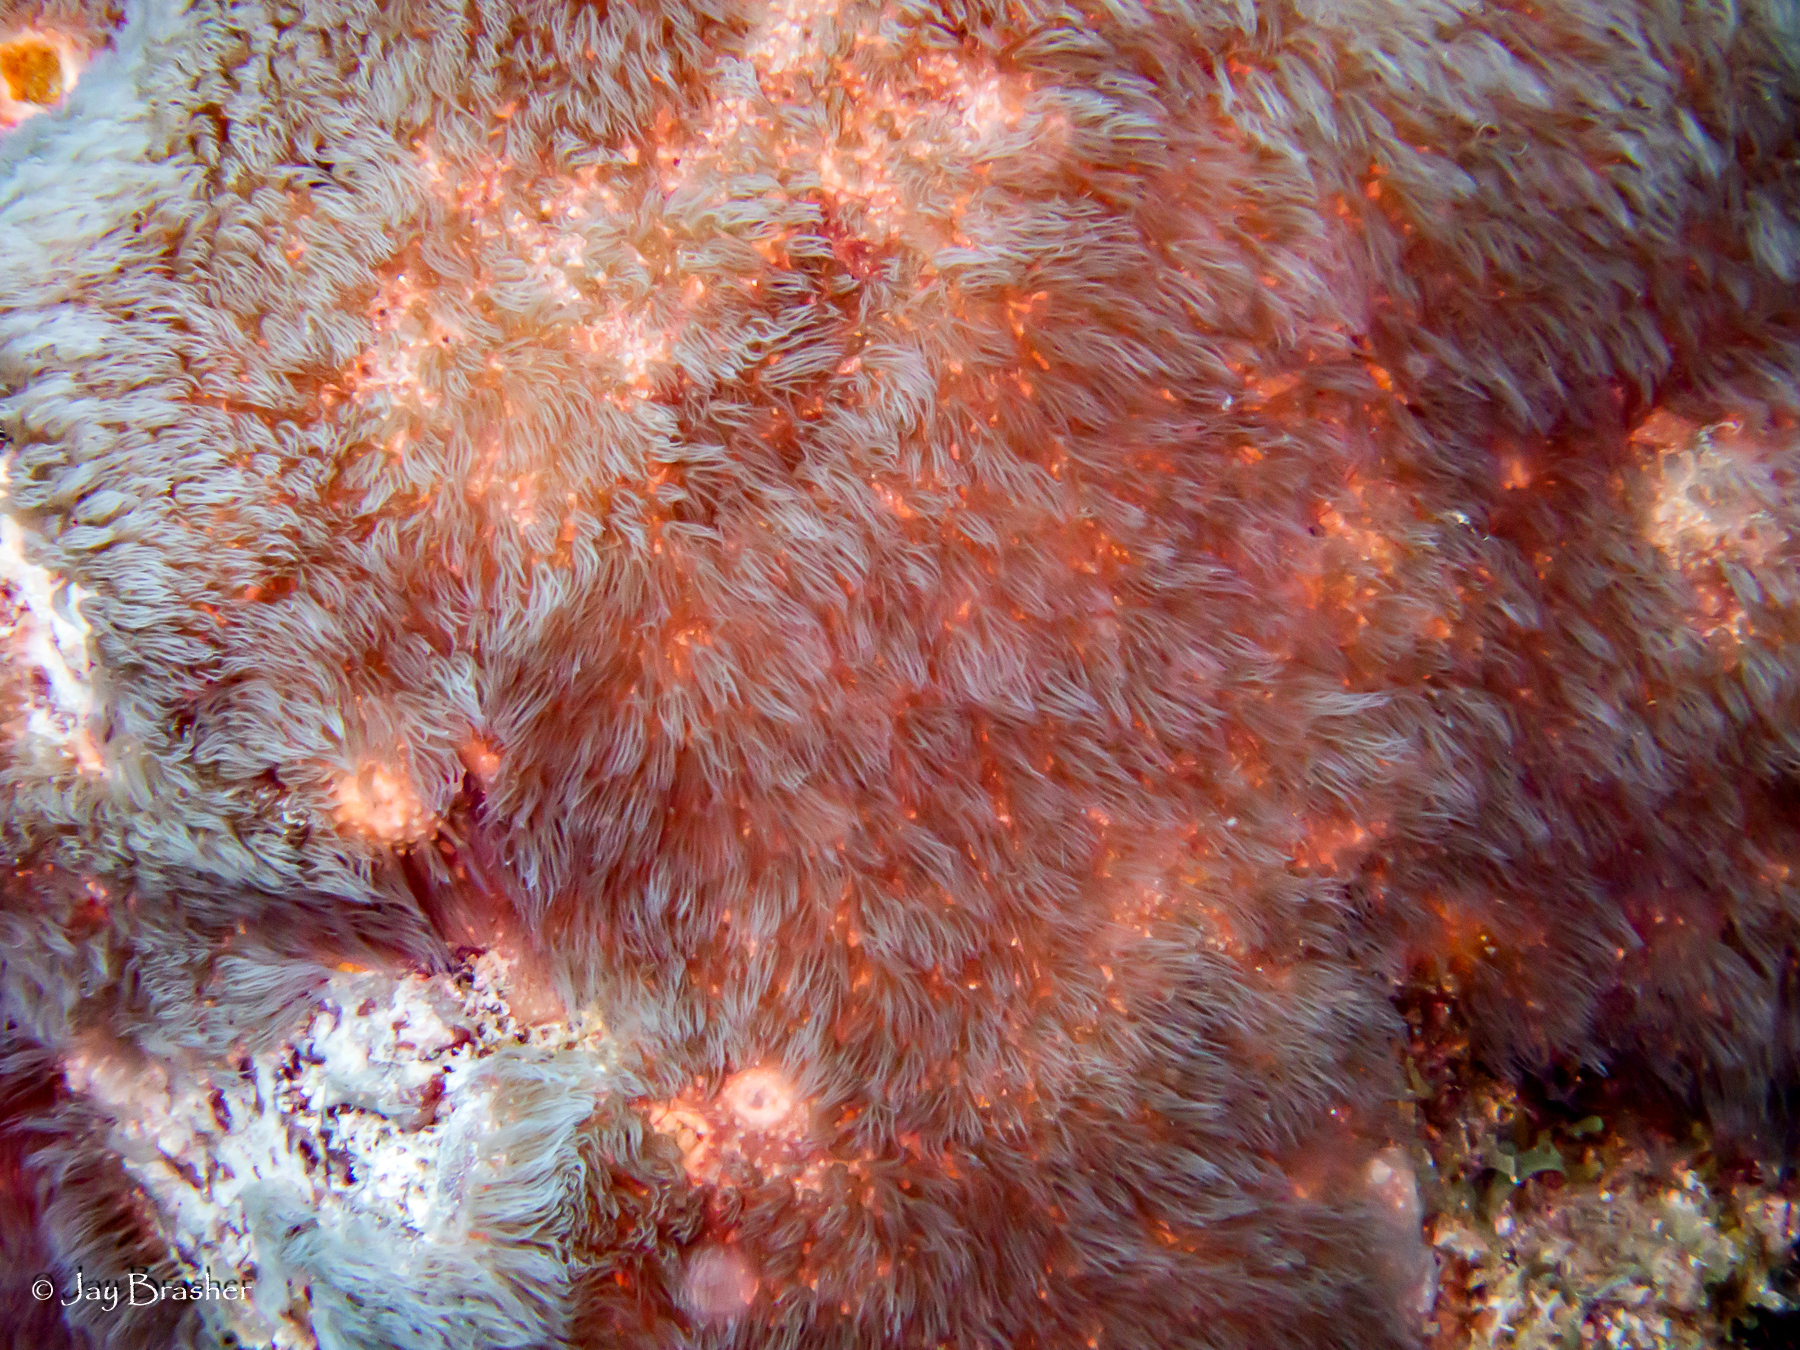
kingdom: Animalia
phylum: Cnidaria
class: Anthozoa
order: Scleralcyonacea
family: Erythropodiidae
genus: Erythropodium
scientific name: Erythropodium caribaeorum
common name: Encrusting gorgonian
